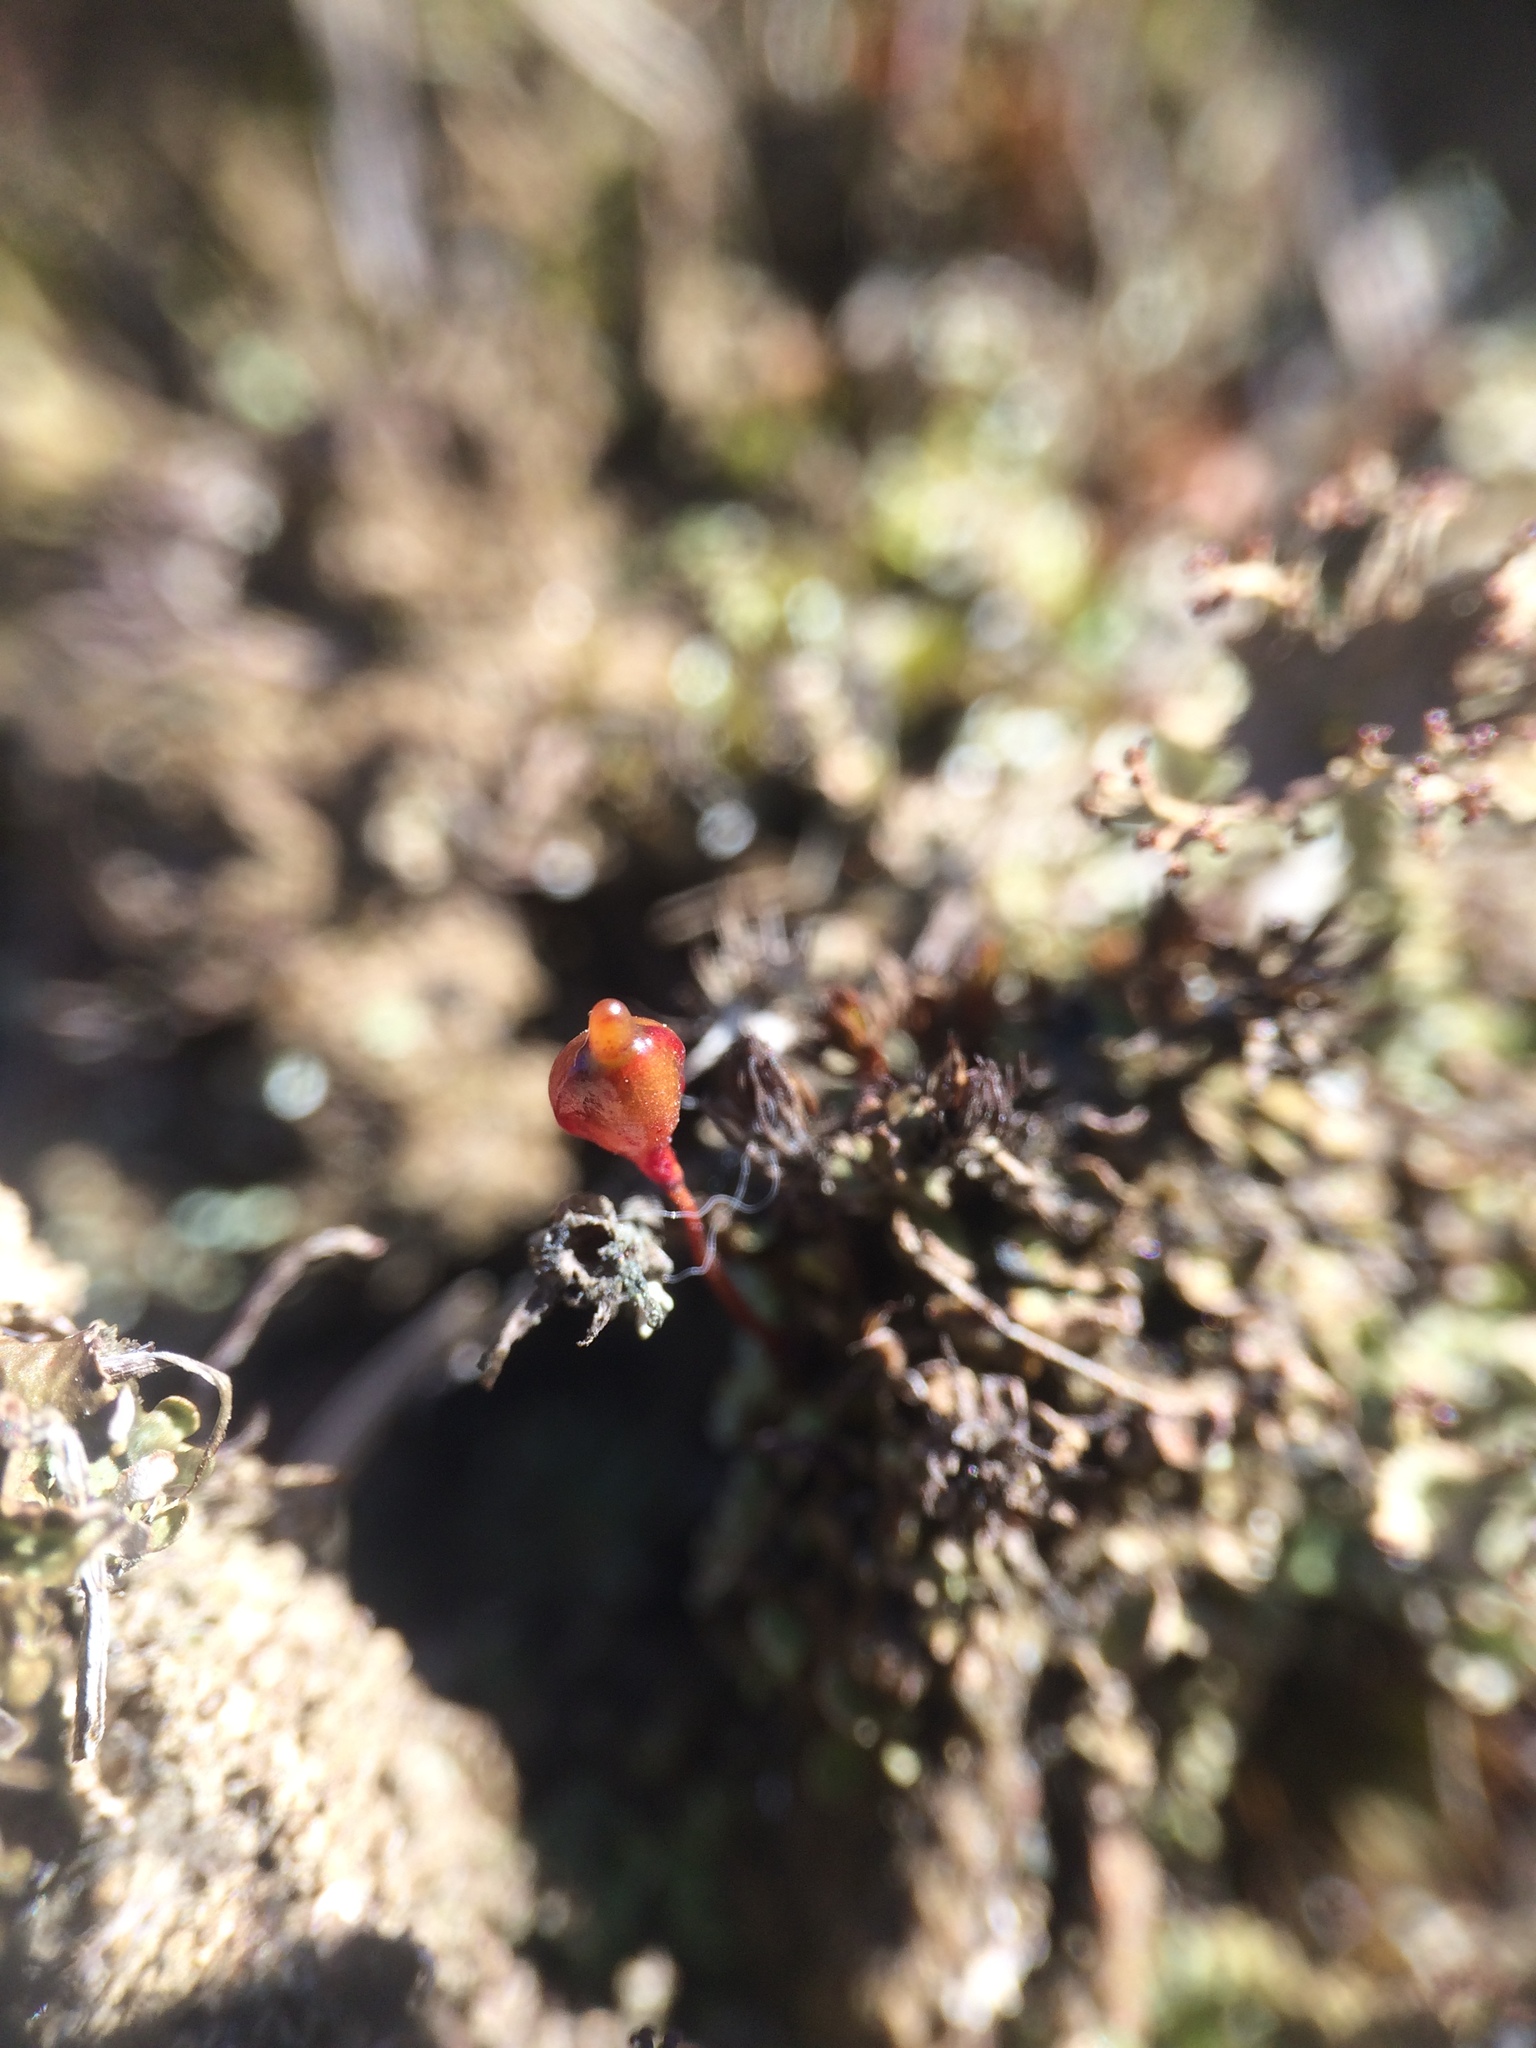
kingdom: Plantae
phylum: Bryophyta
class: Bryopsida
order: Buxbaumiales
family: Buxbaumiaceae
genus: Buxbaumia
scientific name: Buxbaumia aphylla
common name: Brown shield-moss
